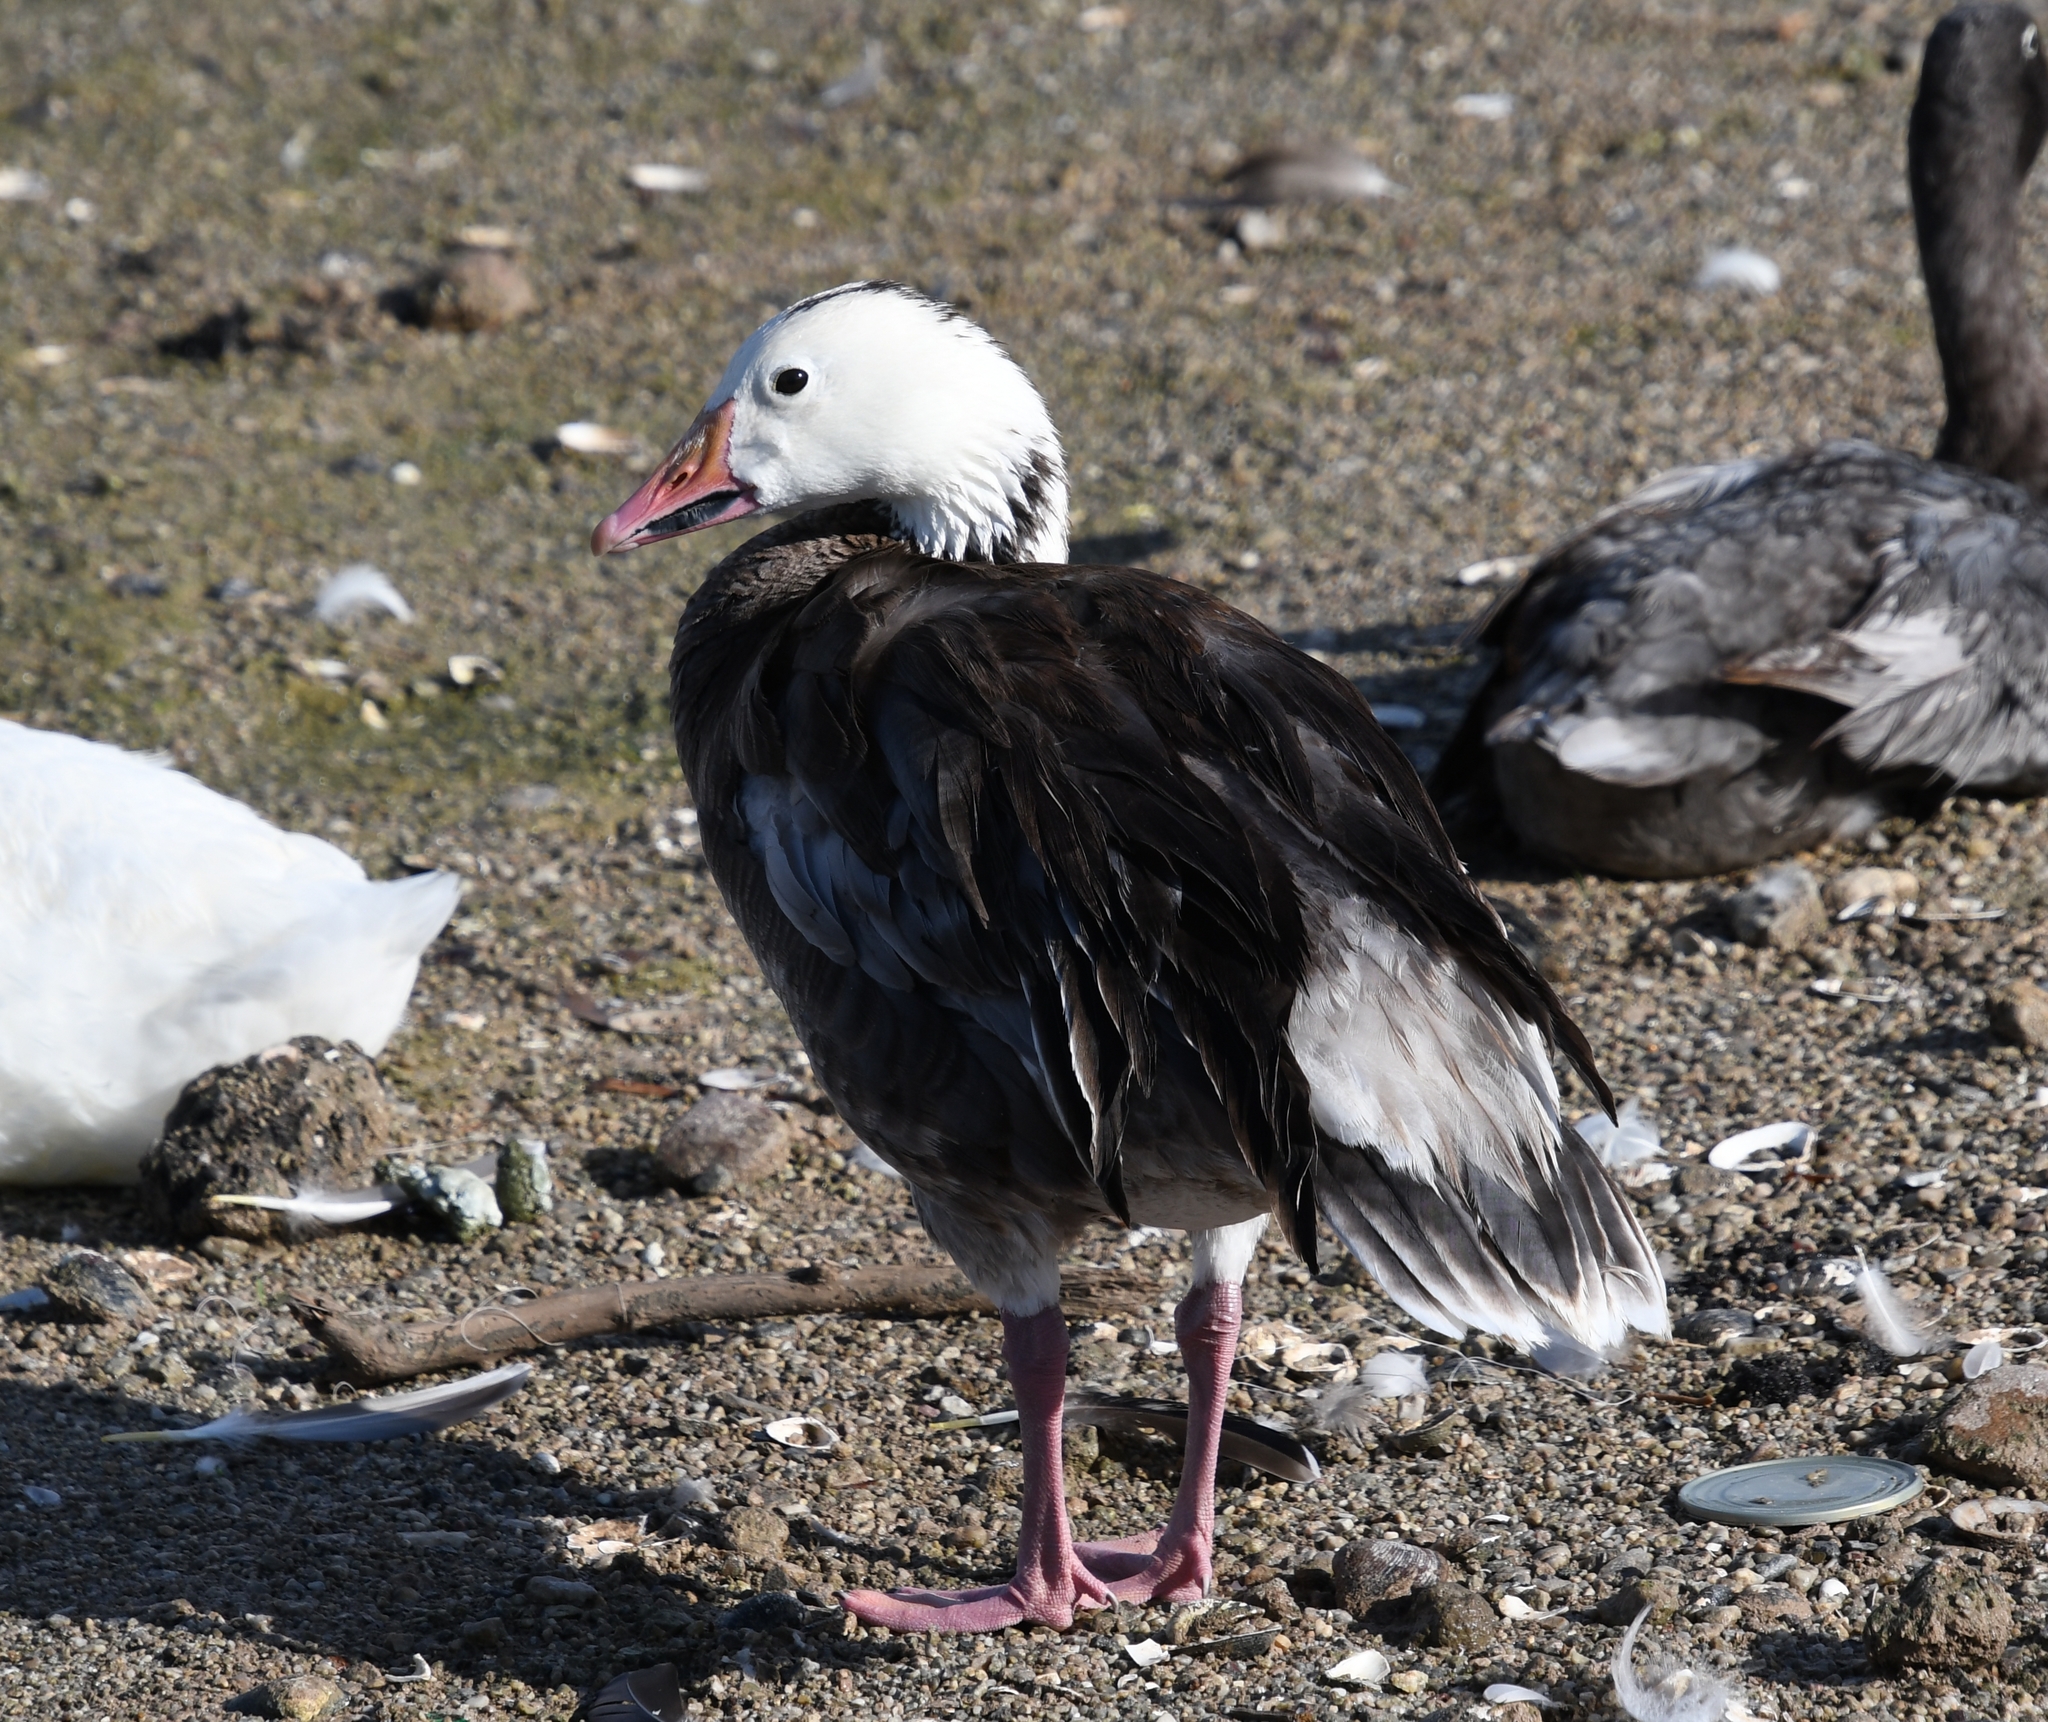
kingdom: Animalia
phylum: Chordata
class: Aves
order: Anseriformes
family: Anatidae
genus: Anser
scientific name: Anser caerulescens
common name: Snow goose
